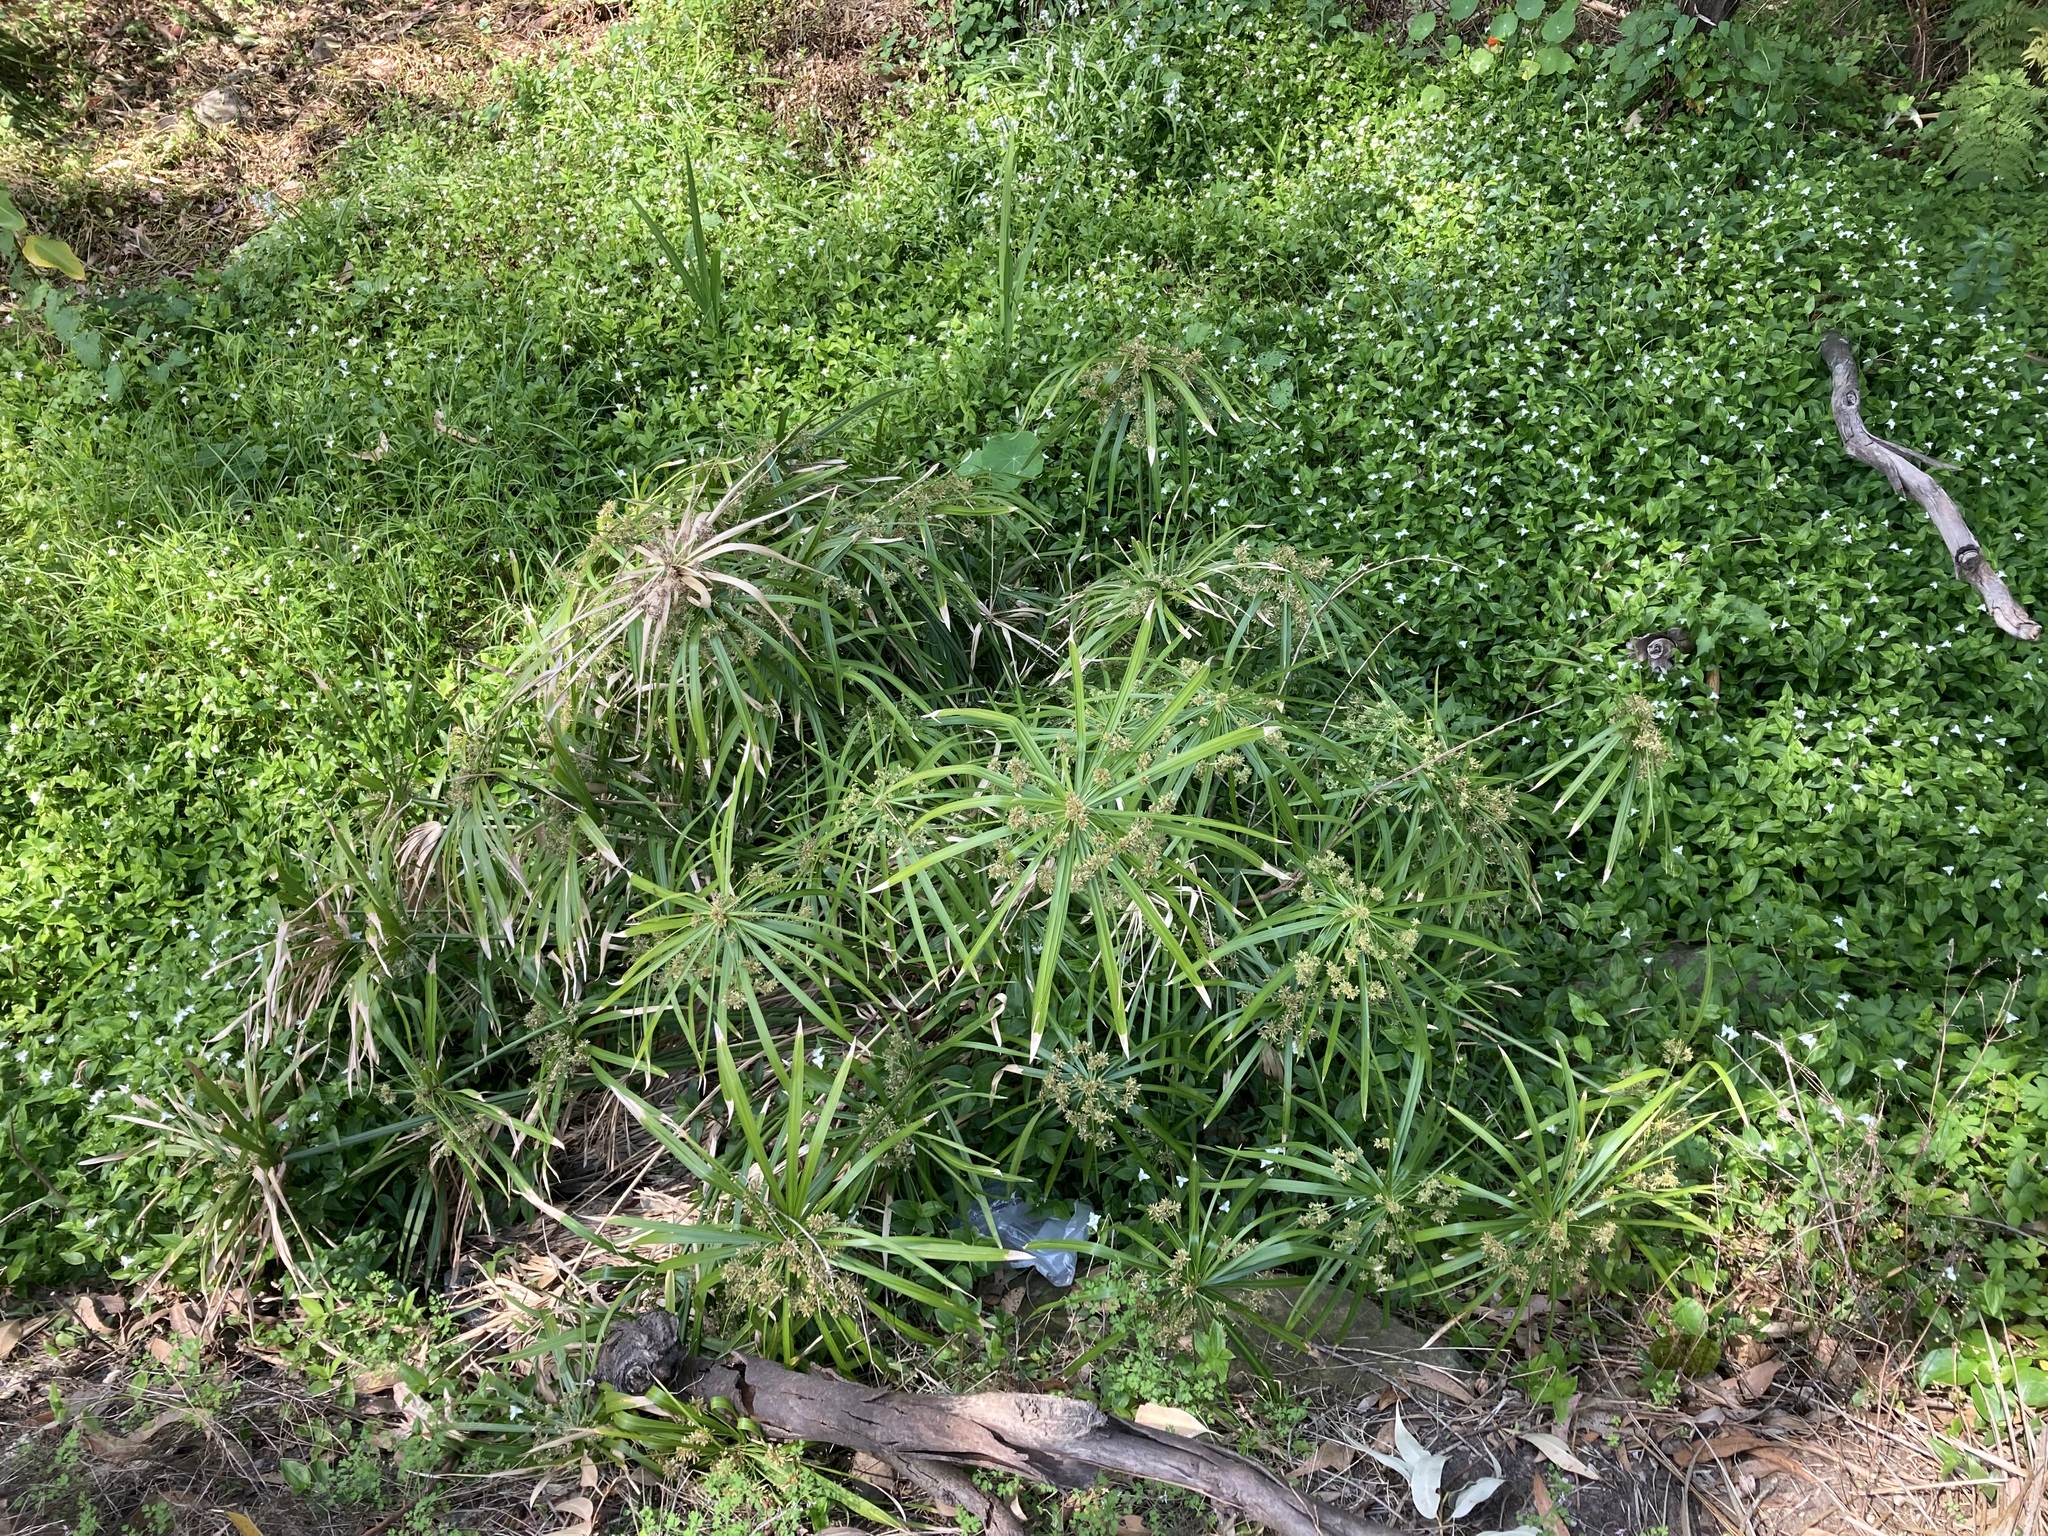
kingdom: Plantae
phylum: Tracheophyta
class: Liliopsida
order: Poales
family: Cyperaceae
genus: Cyperus
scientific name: Cyperus alternifolius
